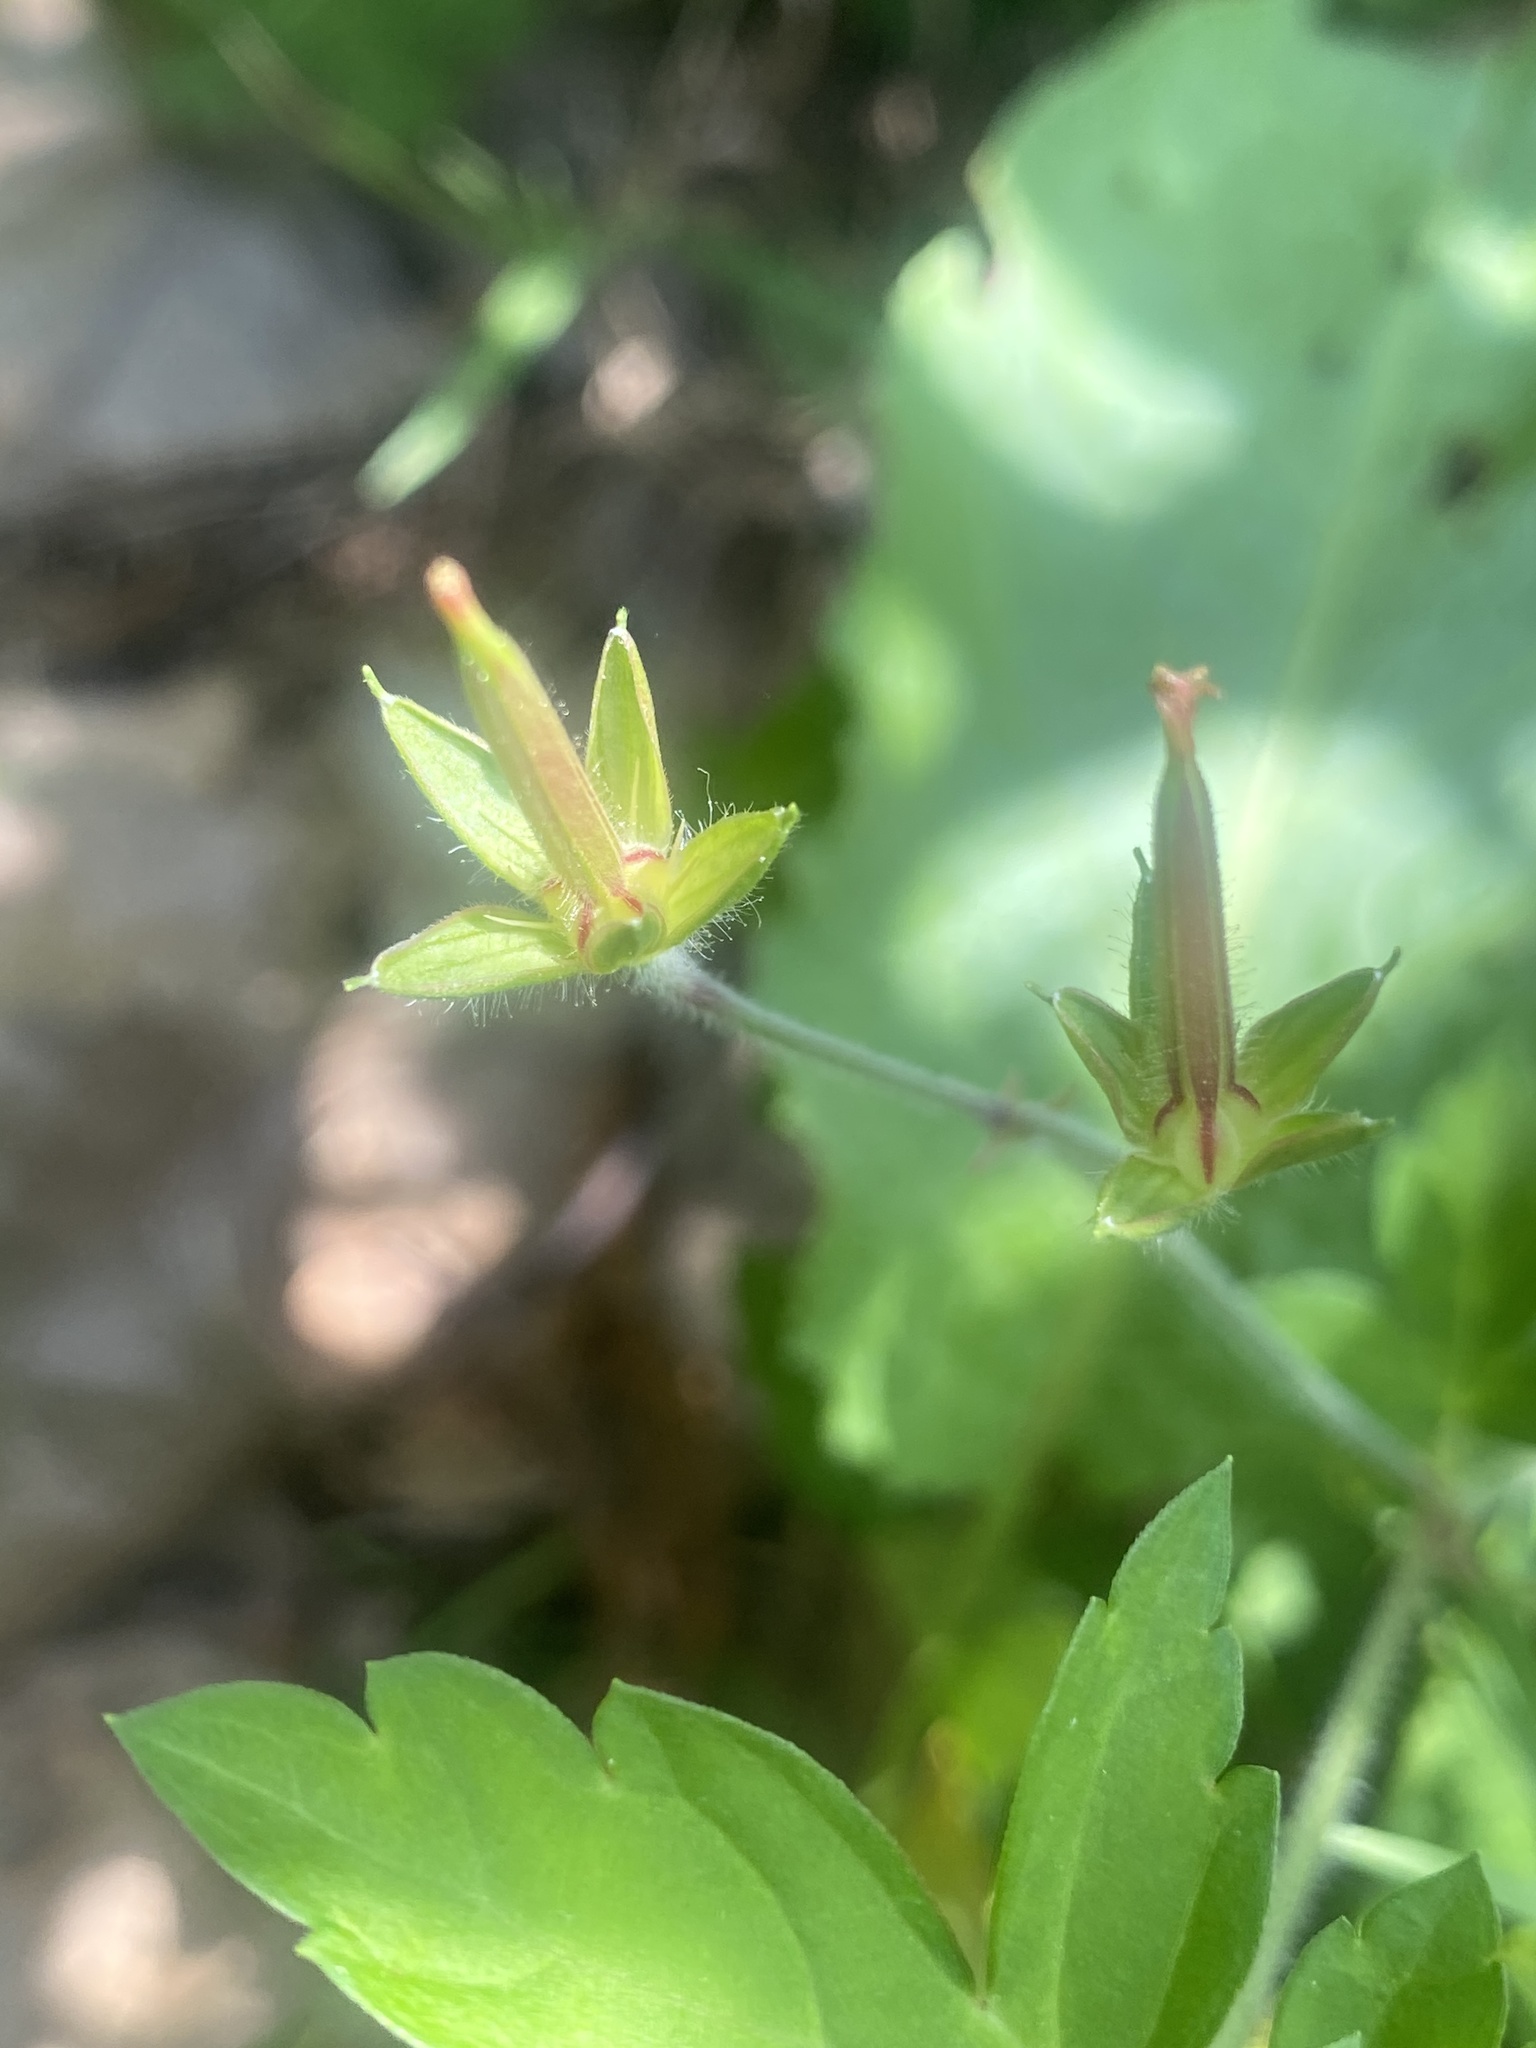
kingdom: Plantae
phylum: Tracheophyta
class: Magnoliopsida
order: Geraniales
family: Geraniaceae
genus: Geranium
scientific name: Geranium thunbergii
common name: Dewdrop crane's-bill
